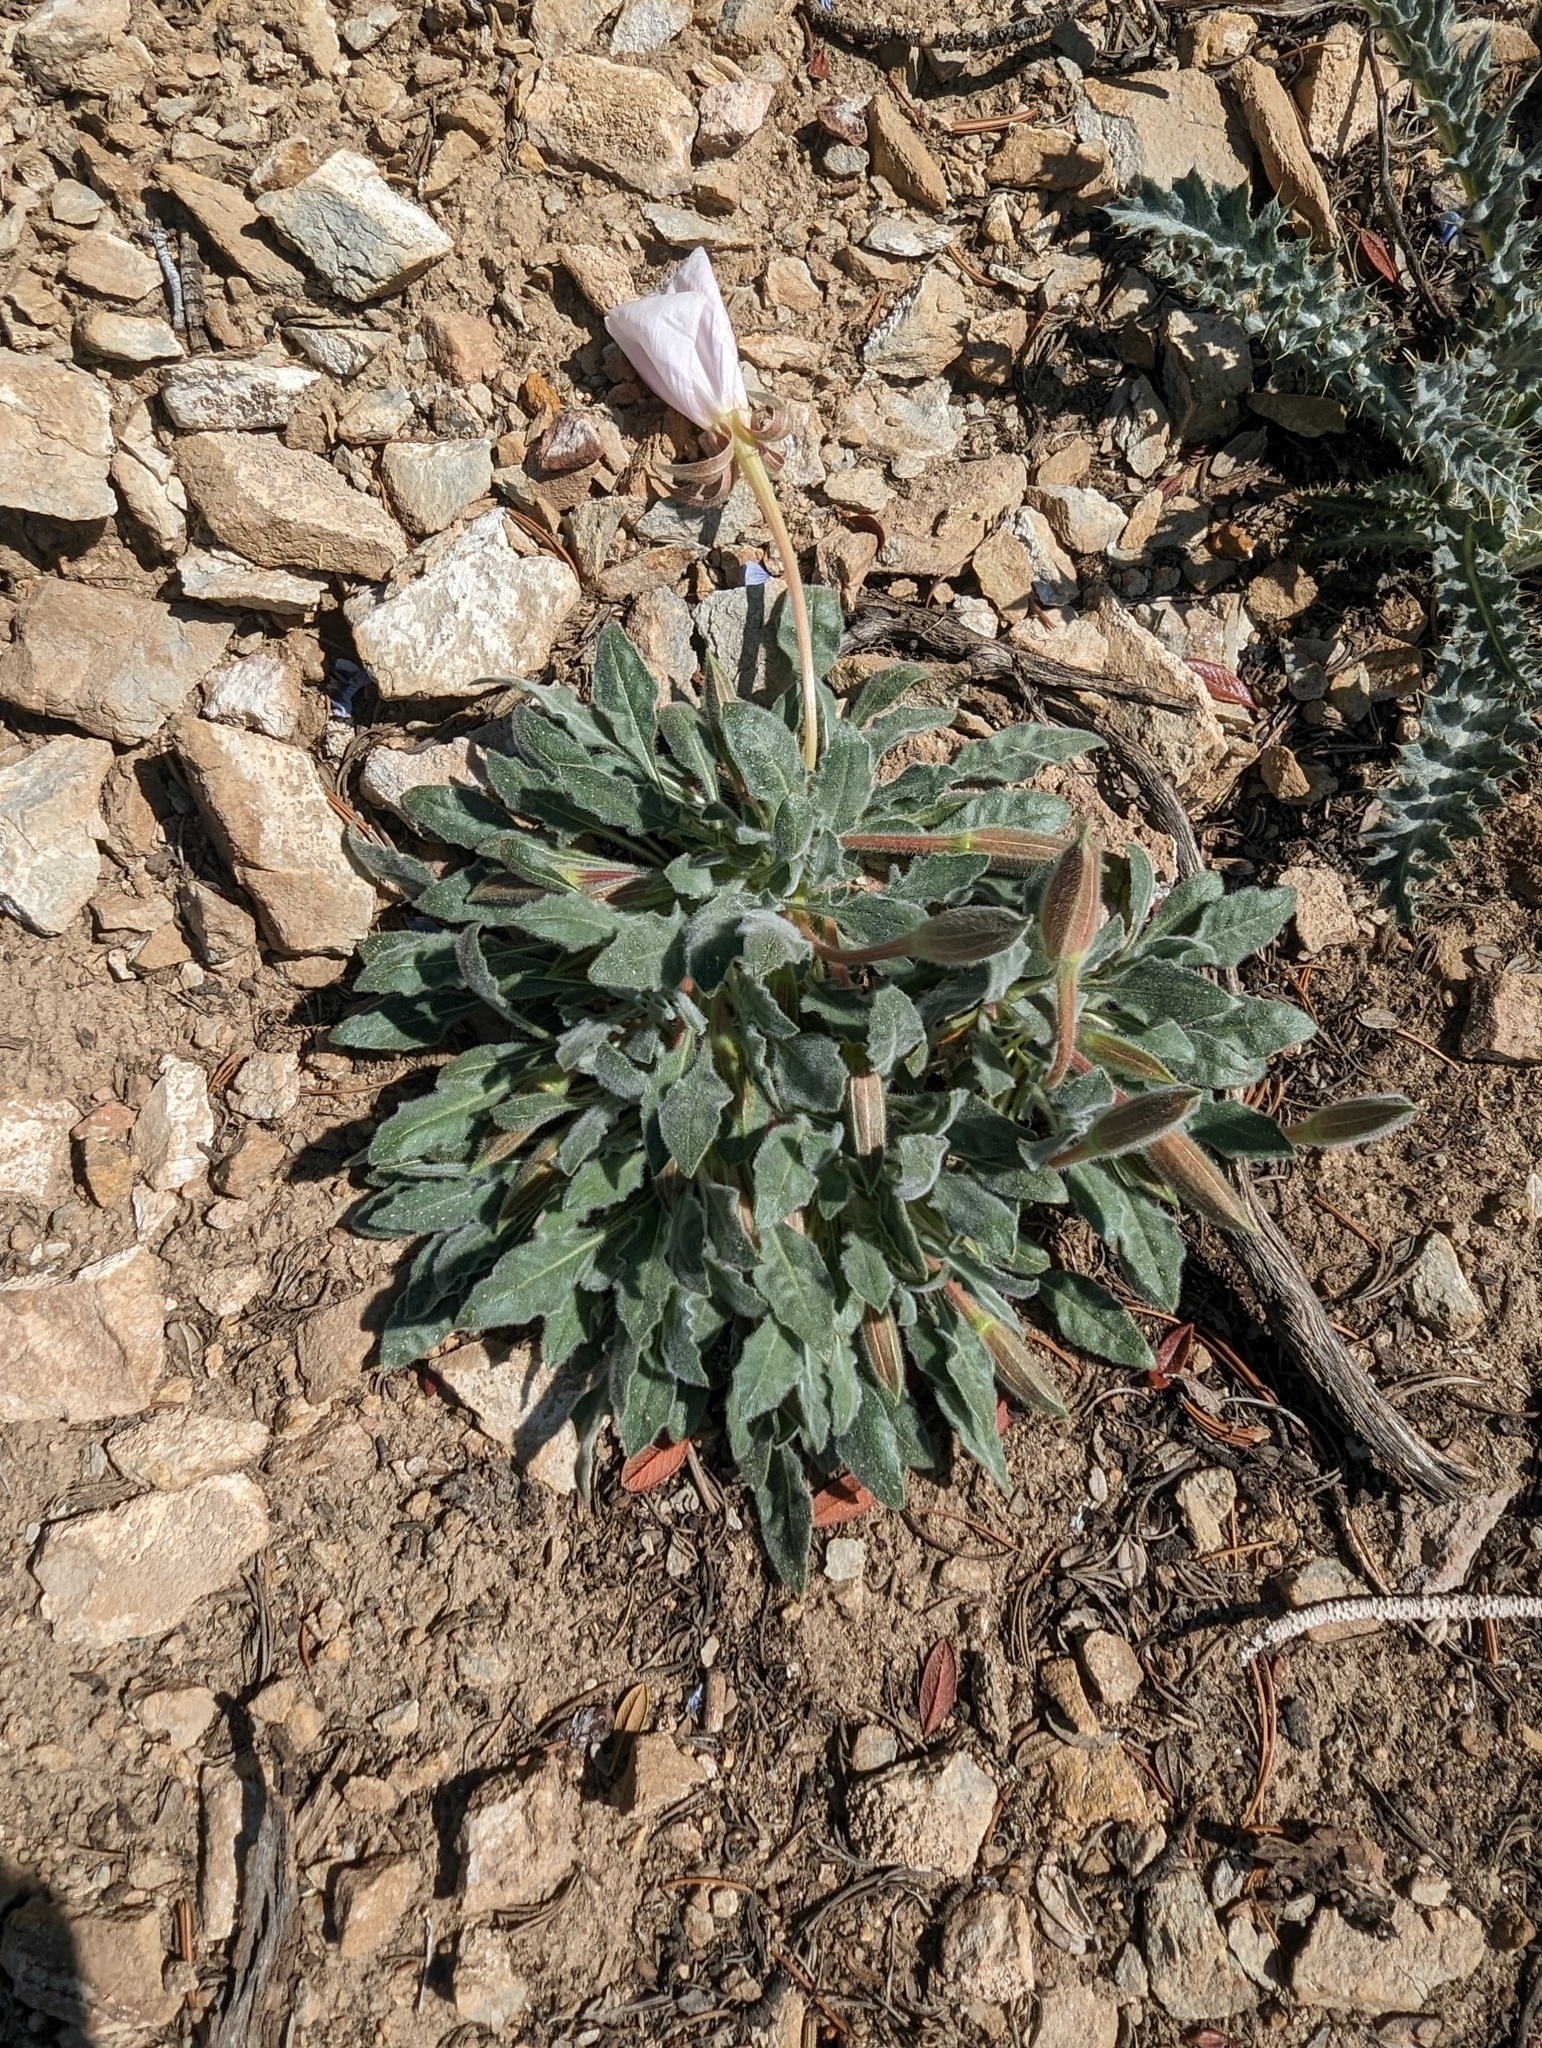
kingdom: Plantae
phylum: Tracheophyta
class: Magnoliopsida
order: Myrtales
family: Onagraceae
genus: Oenothera
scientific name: Oenothera cespitosa
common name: Tufted evening-primrose
